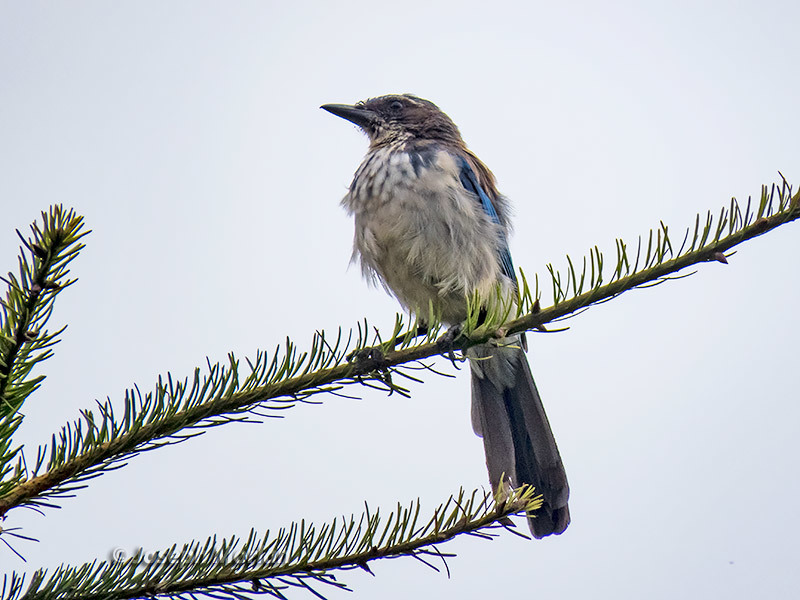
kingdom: Animalia
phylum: Chordata
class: Aves
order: Passeriformes
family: Corvidae
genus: Aphelocoma
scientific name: Aphelocoma californica
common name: California scrub-jay
